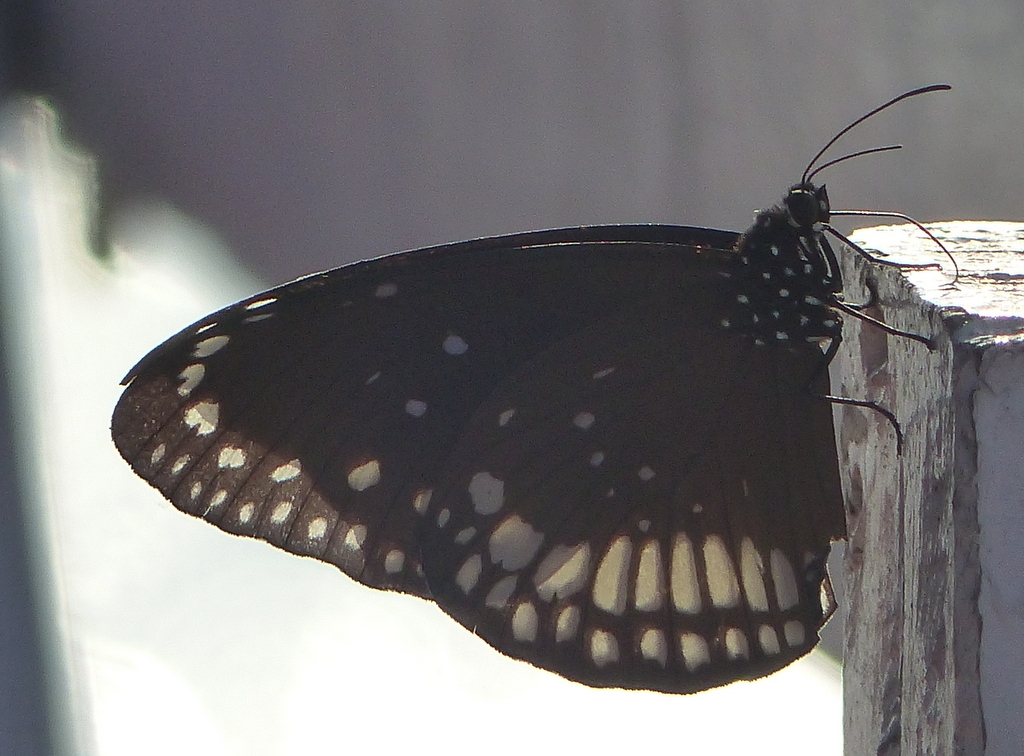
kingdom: Animalia
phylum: Arthropoda
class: Insecta
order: Lepidoptera
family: Nymphalidae
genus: Euploea
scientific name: Euploea core
